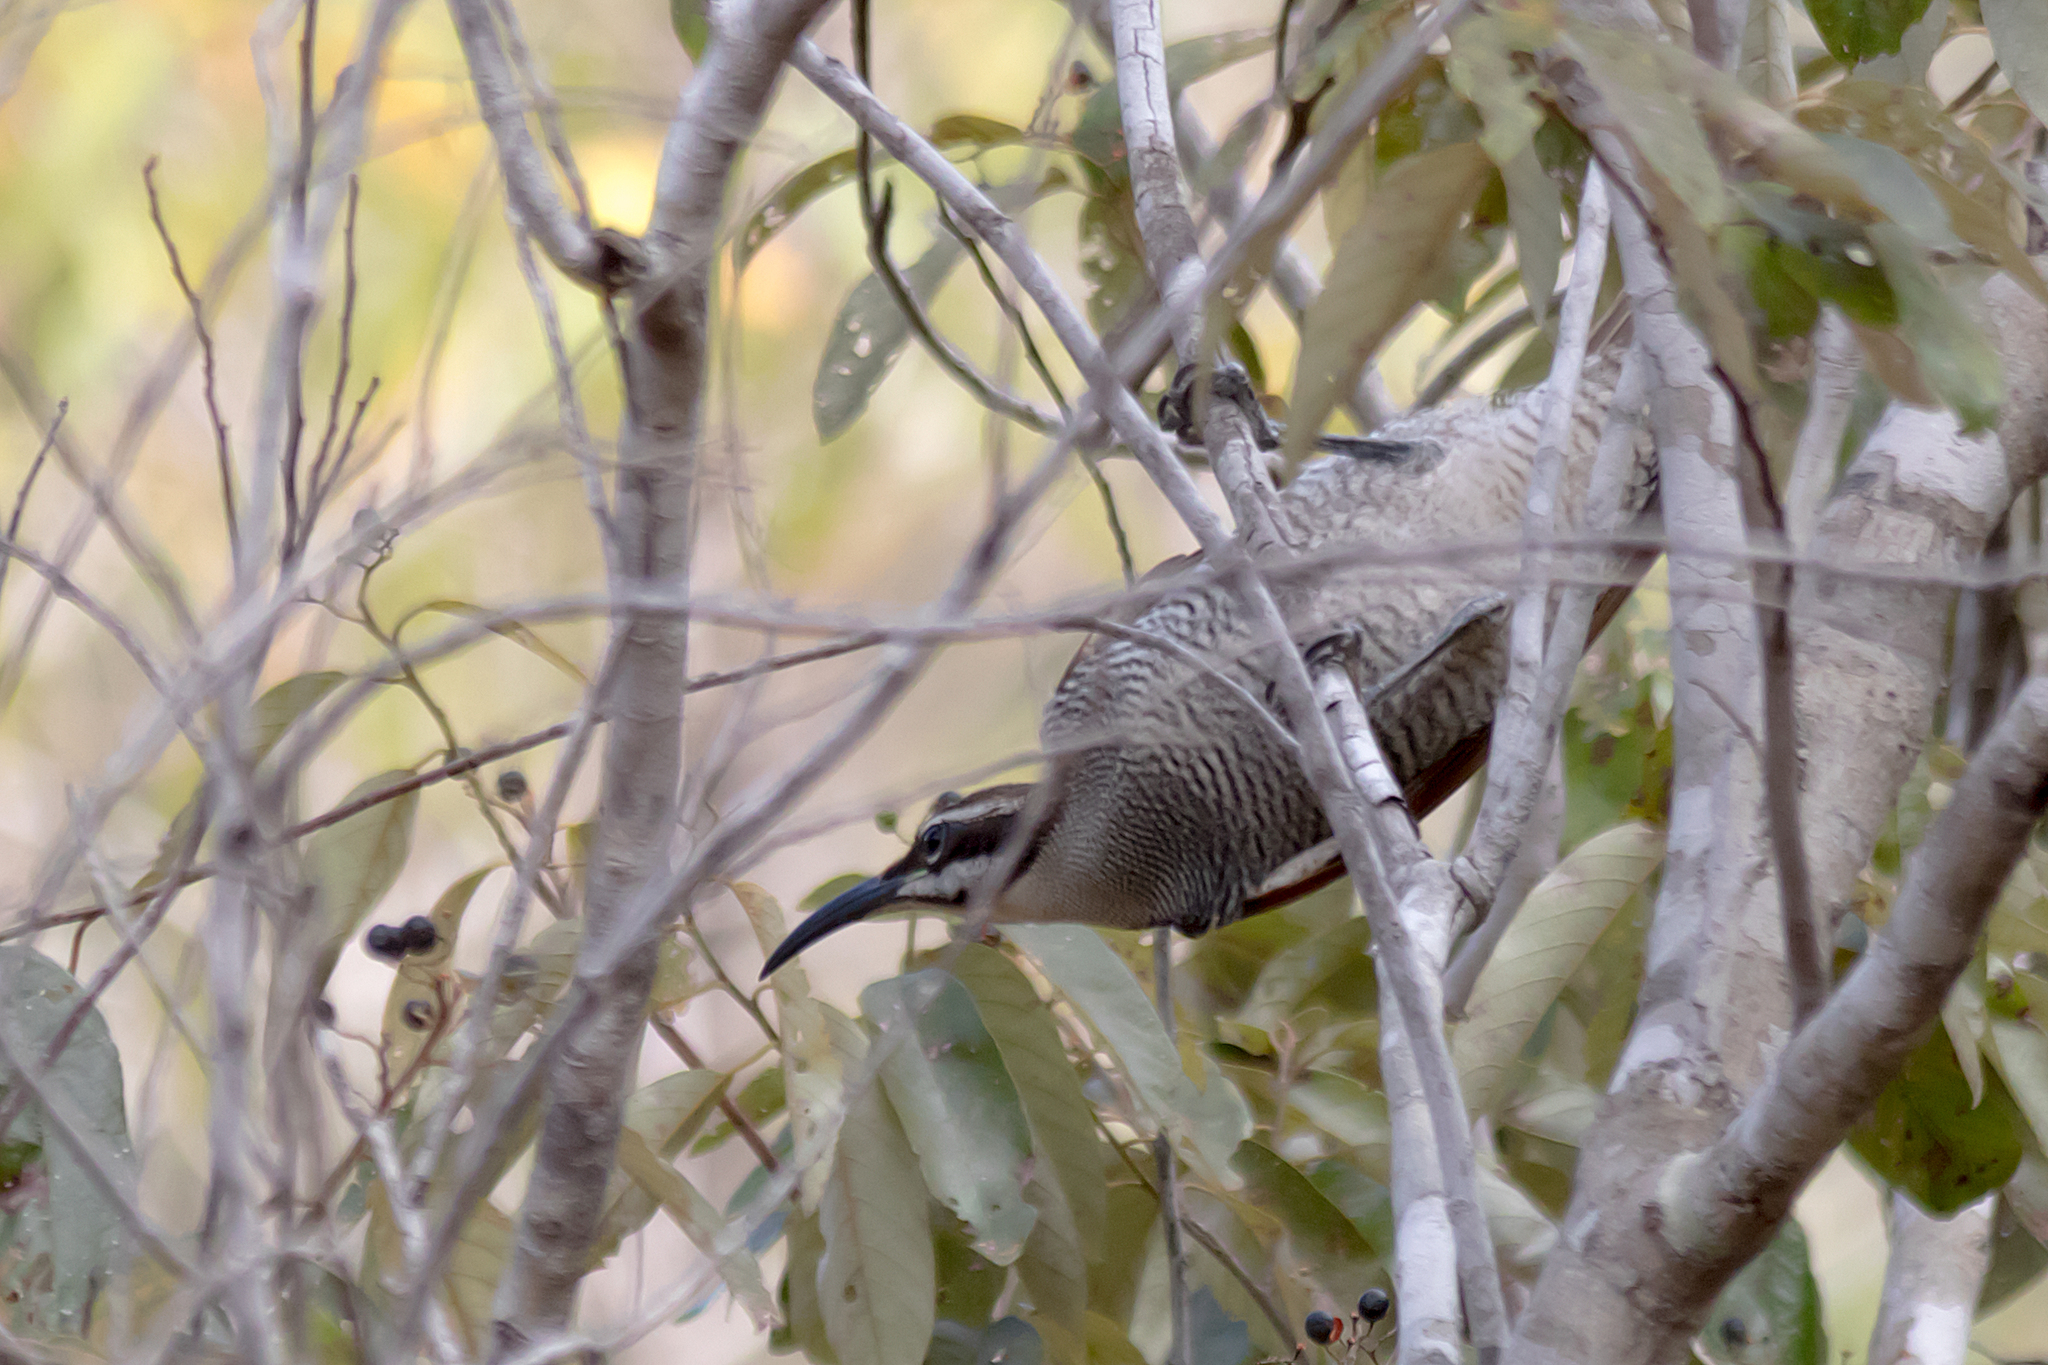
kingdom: Animalia
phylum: Chordata
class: Aves
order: Passeriformes
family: Paradisaeidae
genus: Ptiloris
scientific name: Ptiloris magnificus
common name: Magnificent riflebird
